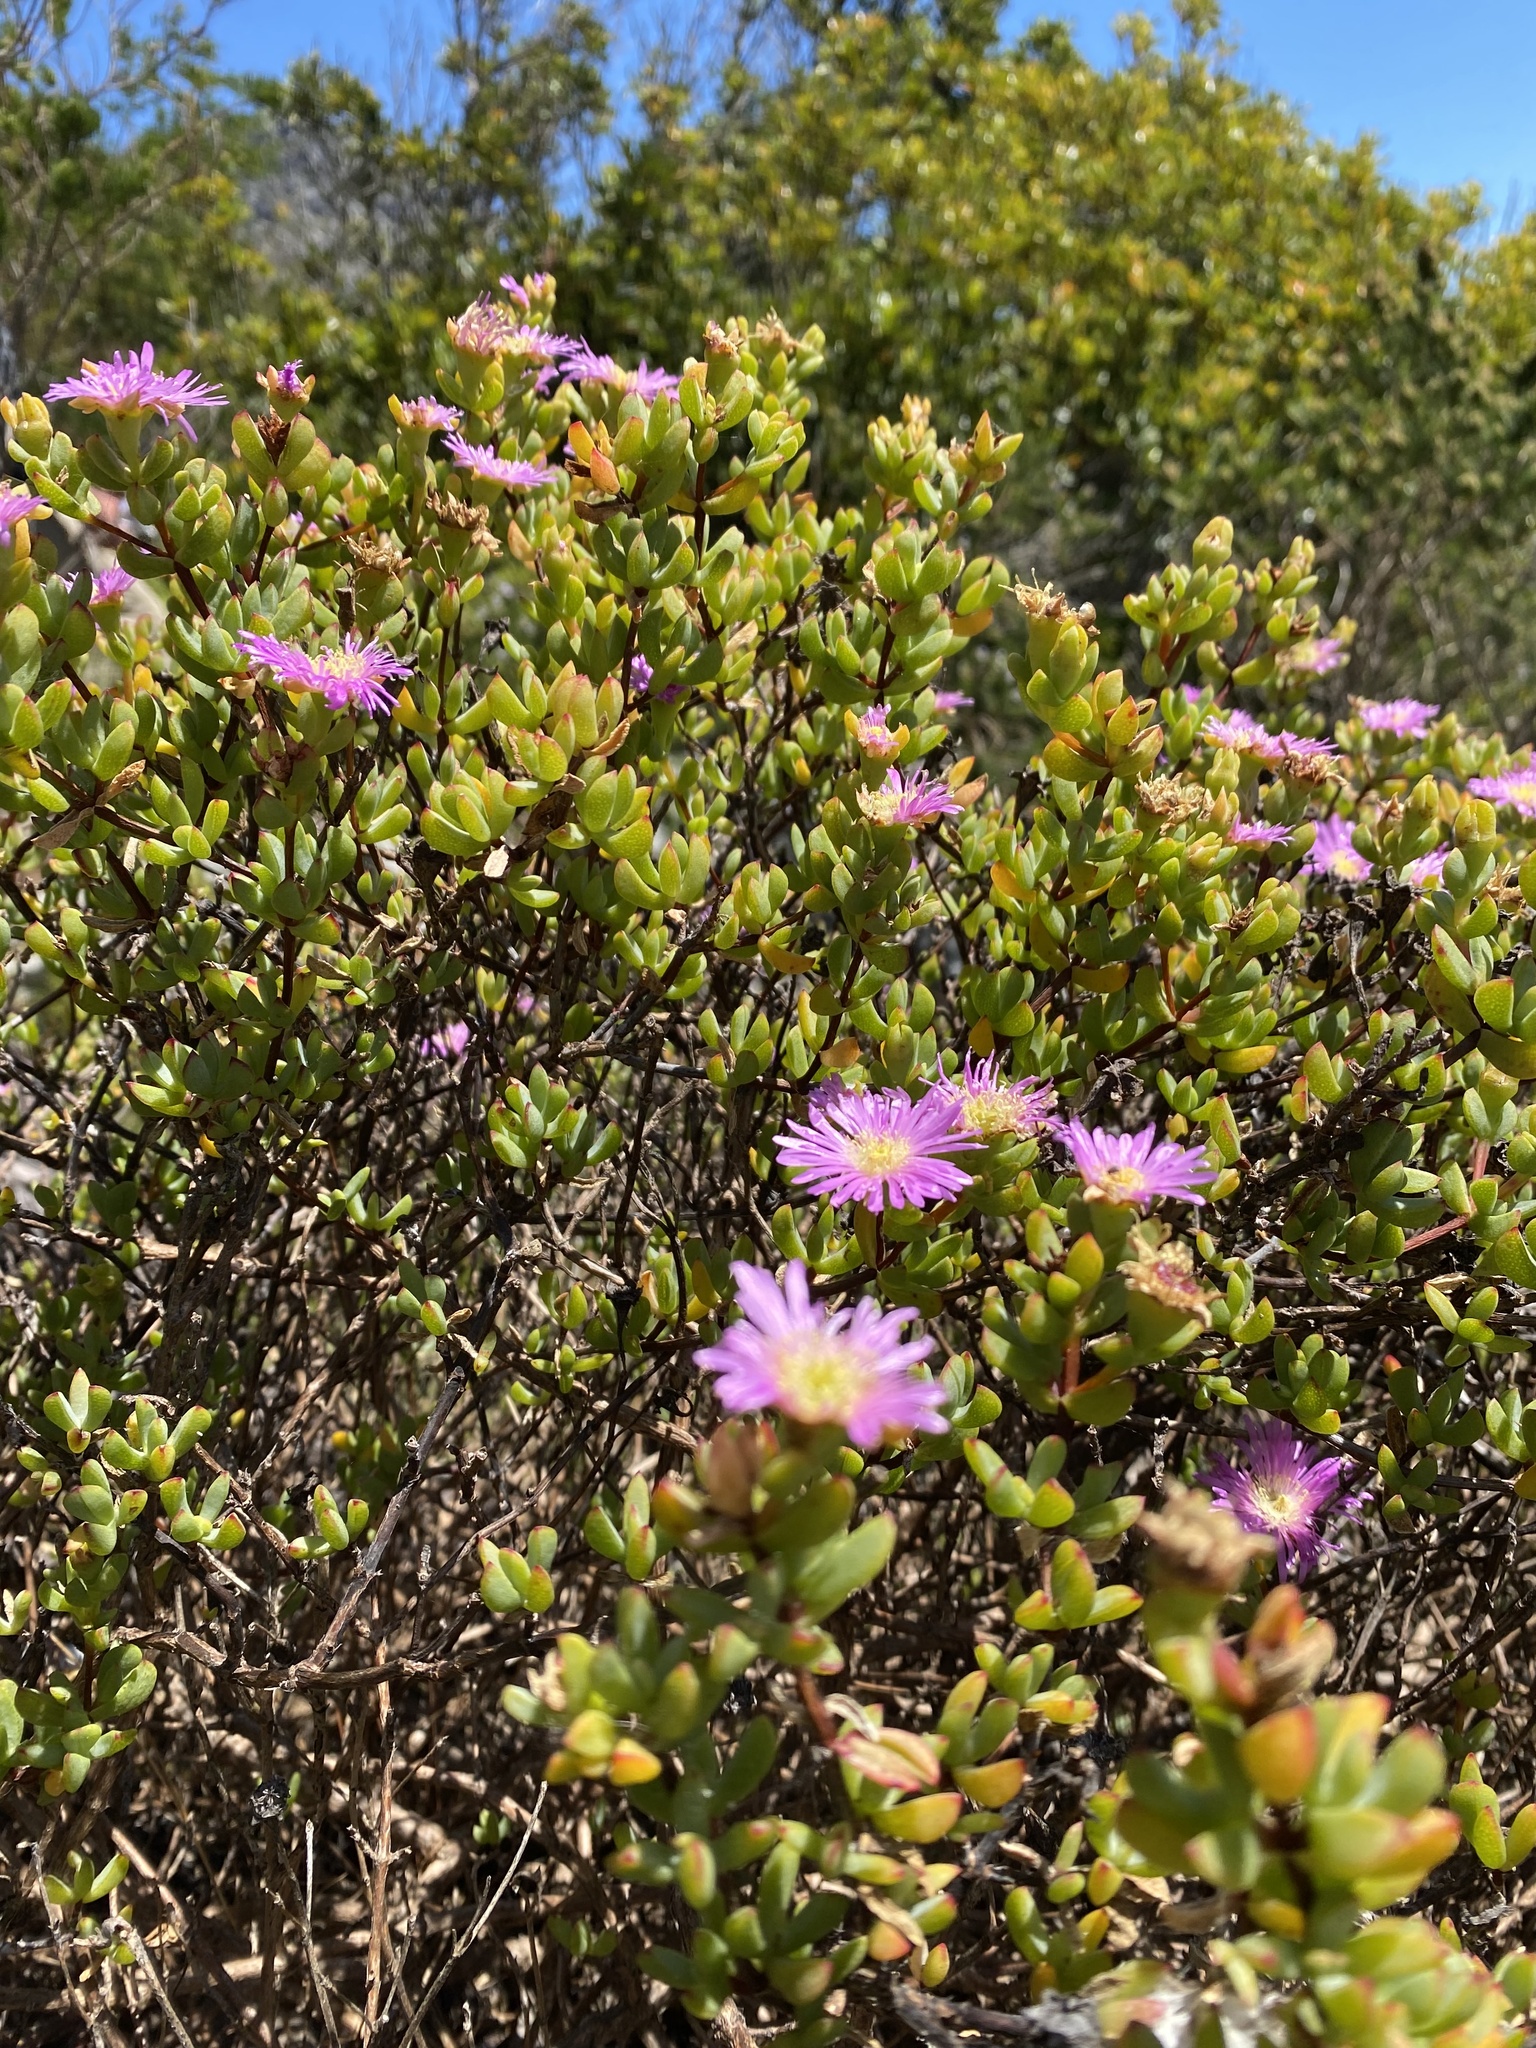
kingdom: Plantae
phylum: Tracheophyta
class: Magnoliopsida
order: Caryophyllales
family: Aizoaceae
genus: Oscularia
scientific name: Oscularia falciformis
